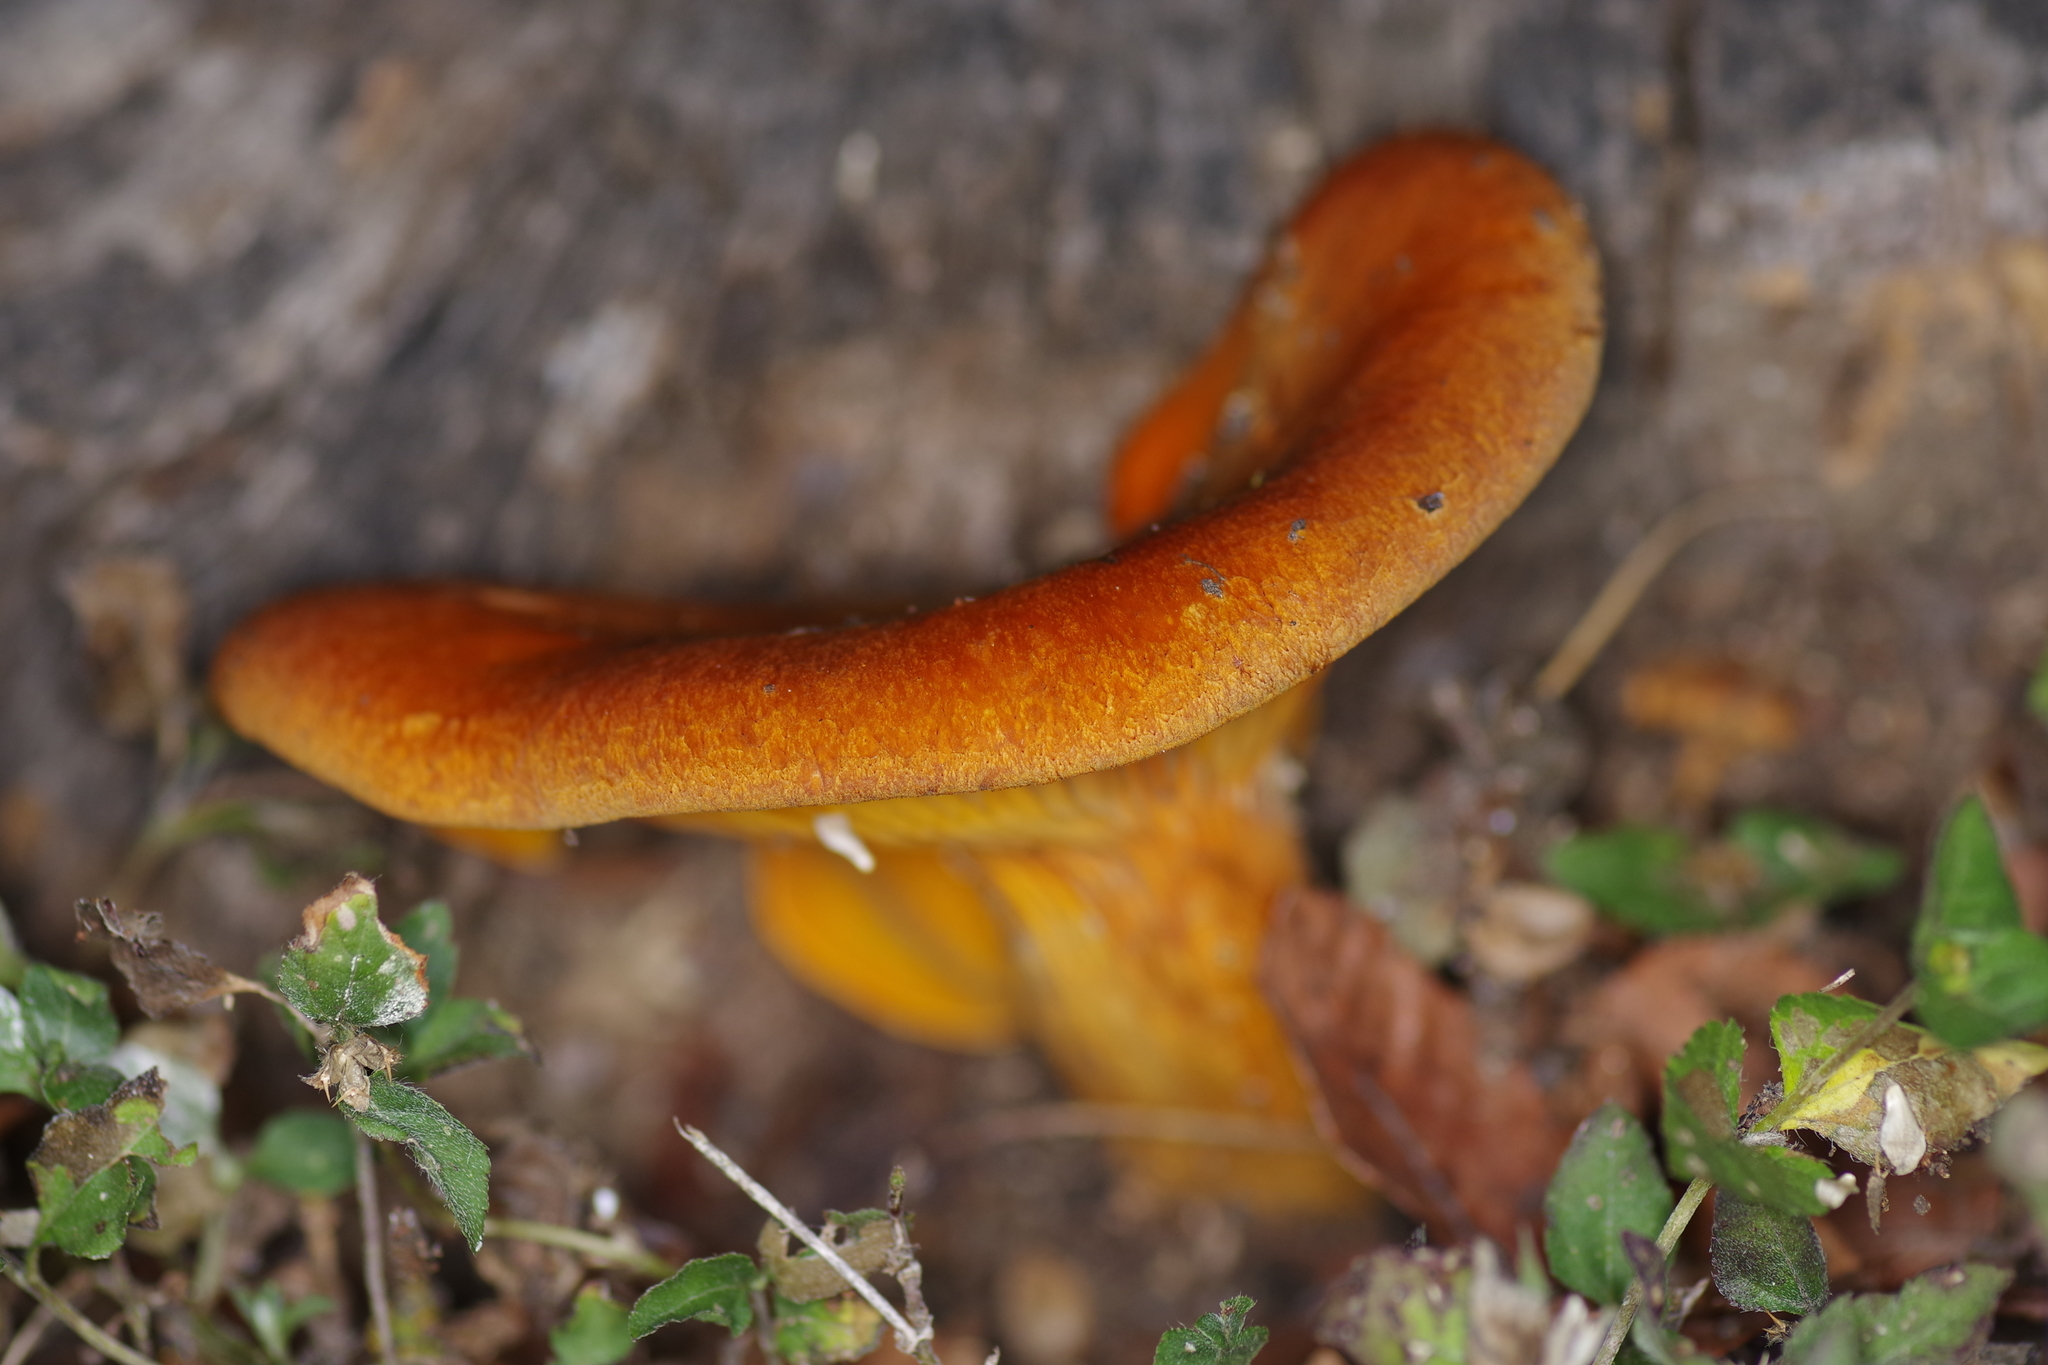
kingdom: Fungi
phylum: Basidiomycota
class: Agaricomycetes
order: Agaricales
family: Omphalotaceae
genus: Omphalotus
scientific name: Omphalotus subilludens
